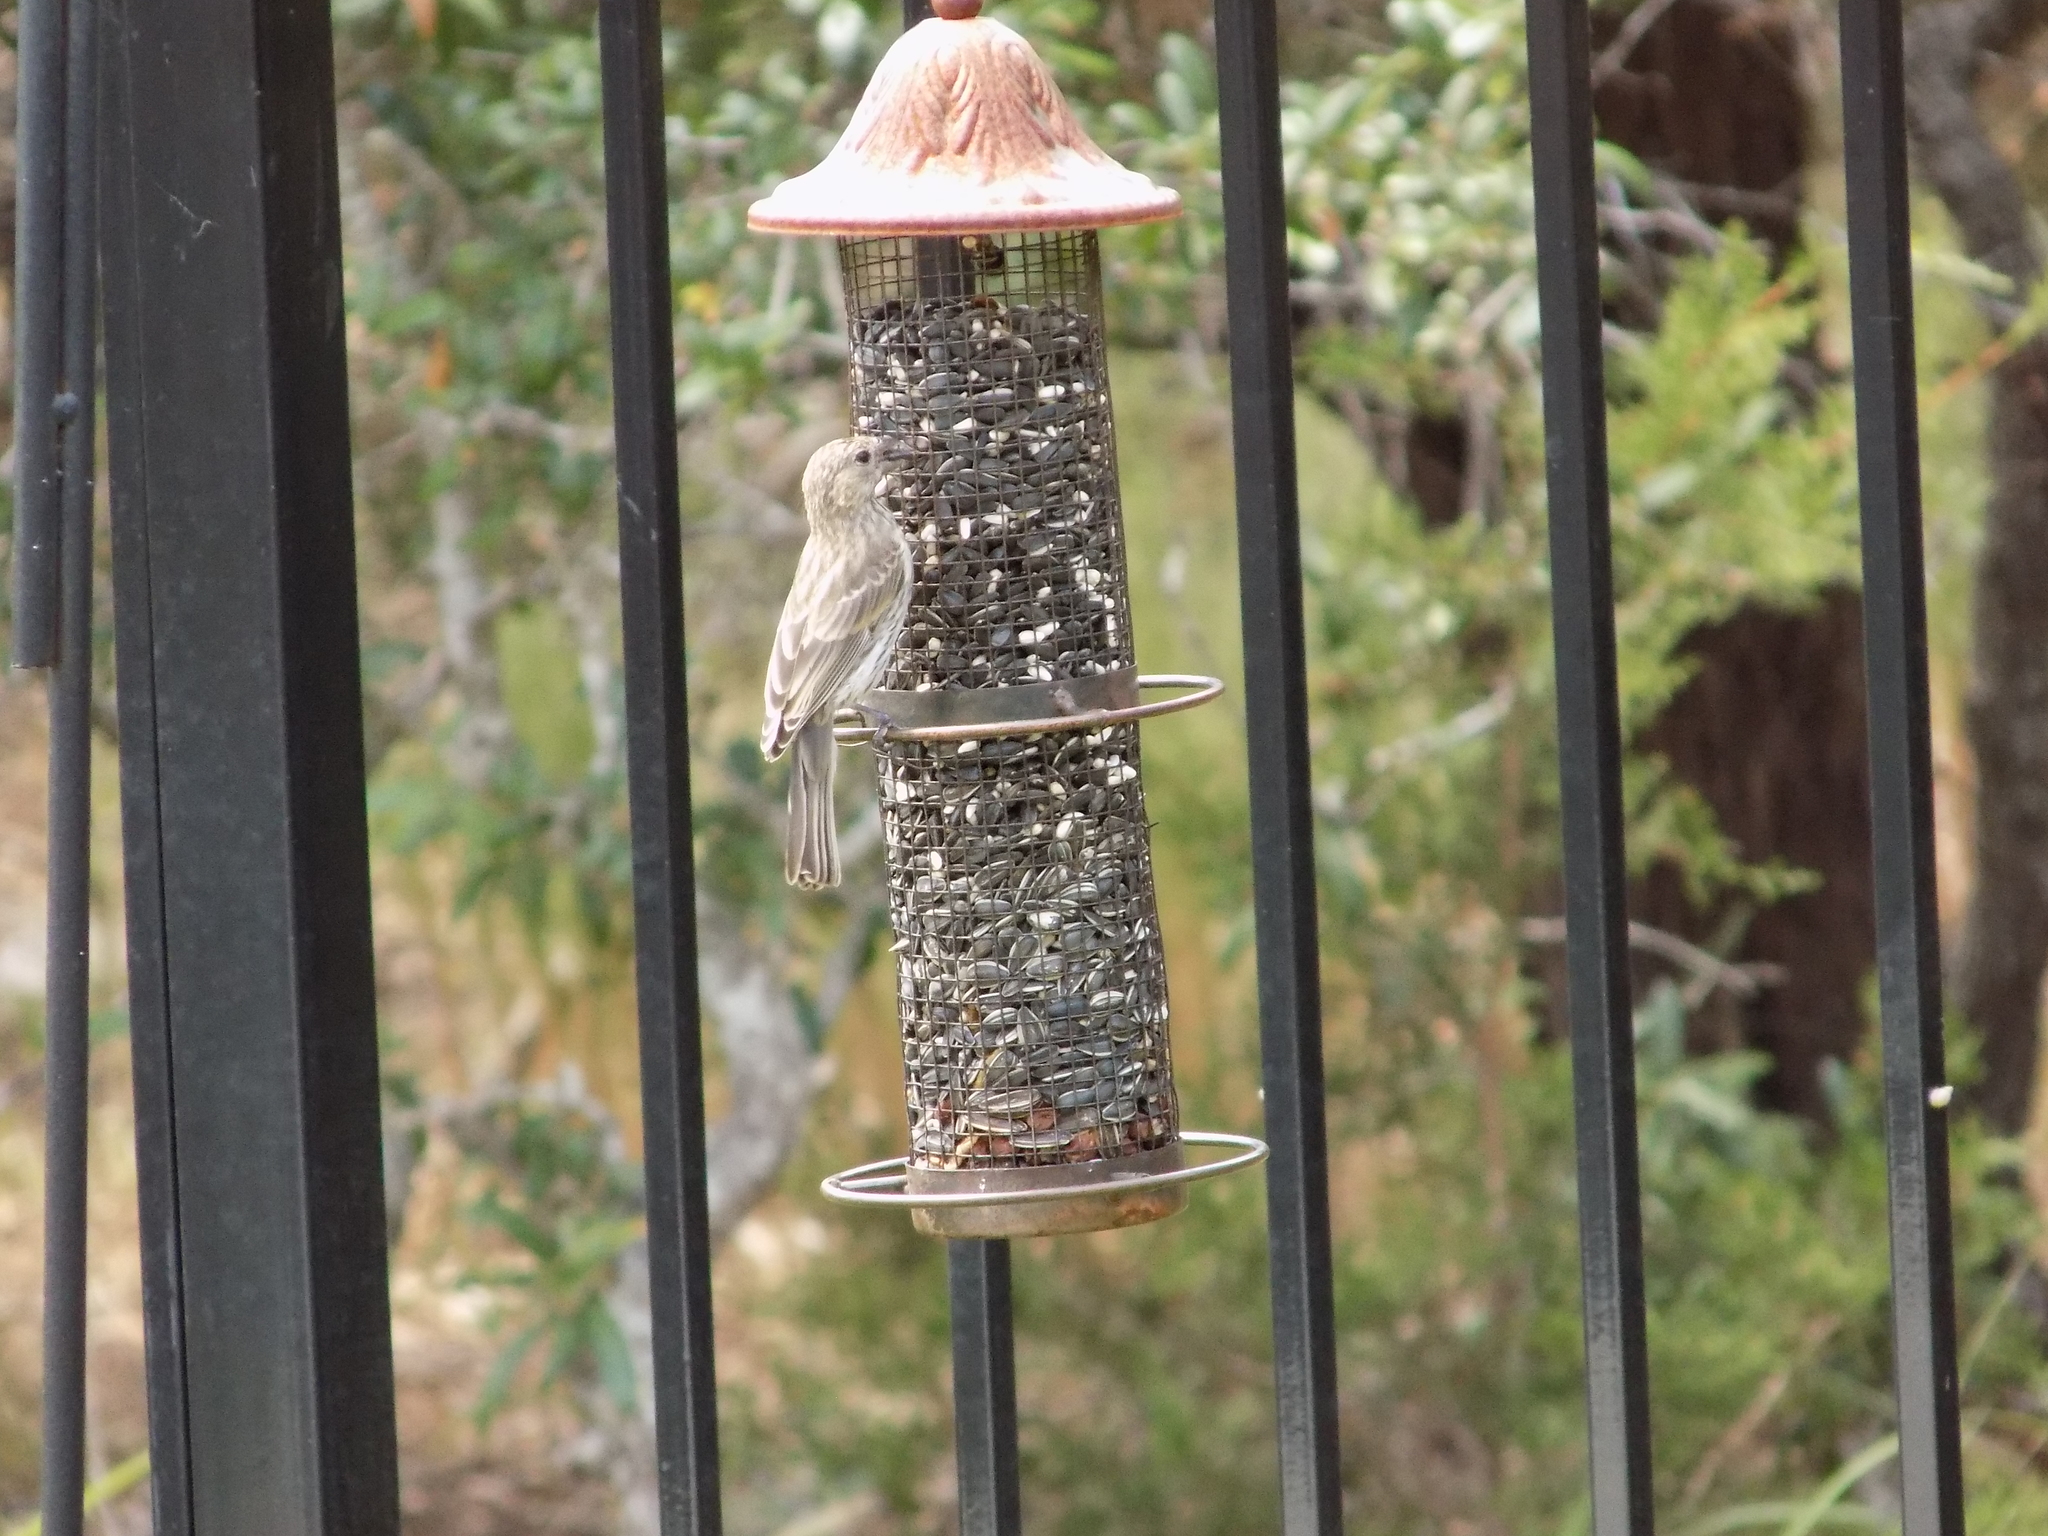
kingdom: Animalia
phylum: Chordata
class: Aves
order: Passeriformes
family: Fringillidae
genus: Haemorhous
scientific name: Haemorhous mexicanus
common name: House finch
